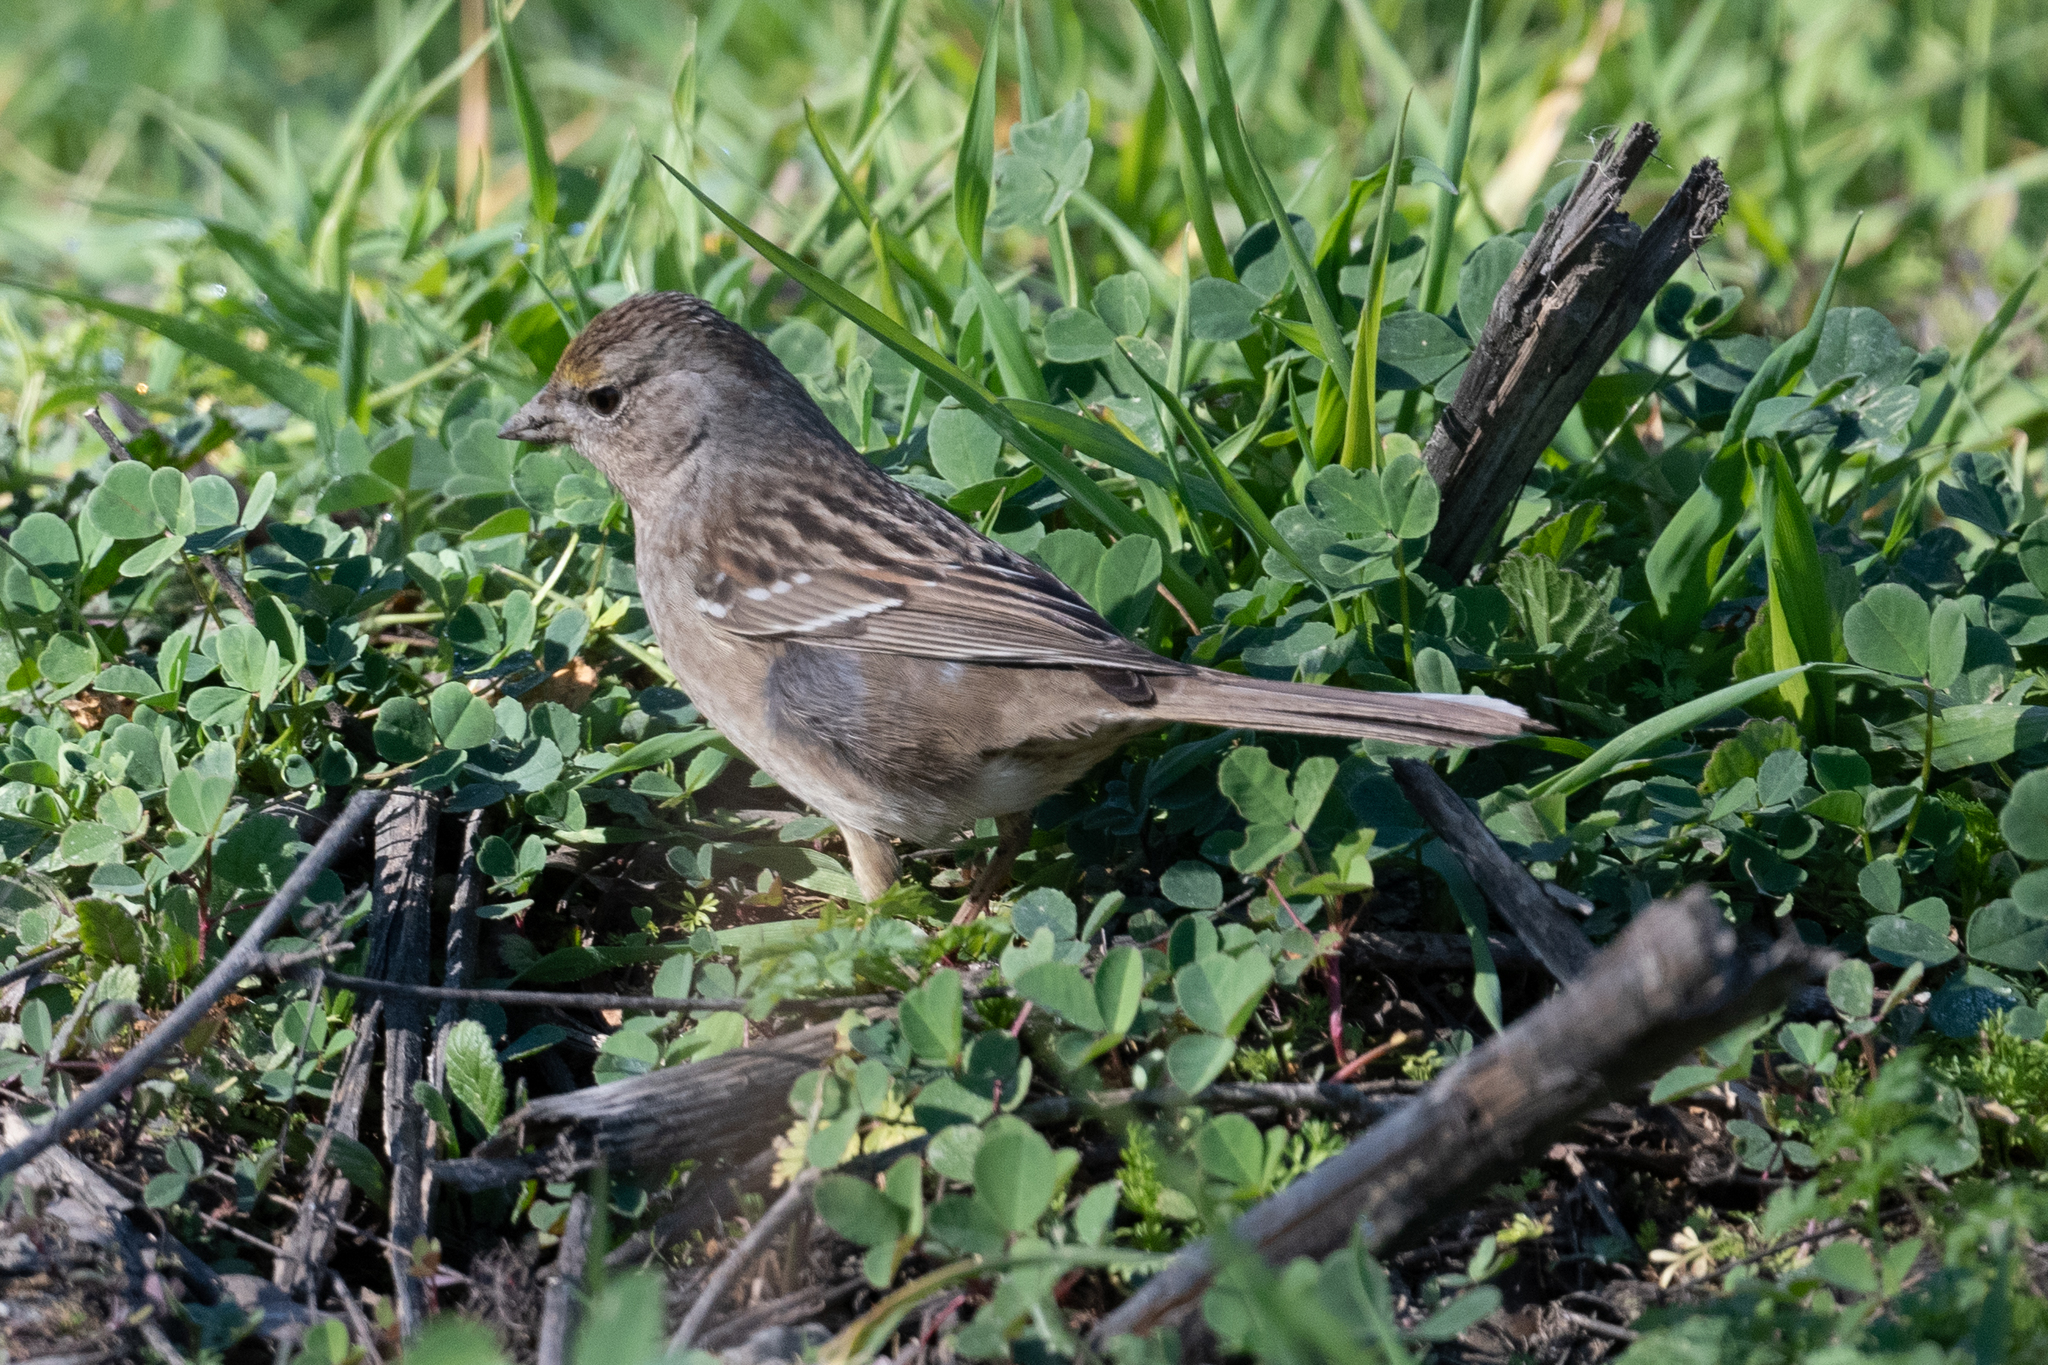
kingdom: Animalia
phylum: Chordata
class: Aves
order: Passeriformes
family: Passerellidae
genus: Zonotrichia
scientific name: Zonotrichia atricapilla
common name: Golden-crowned sparrow
